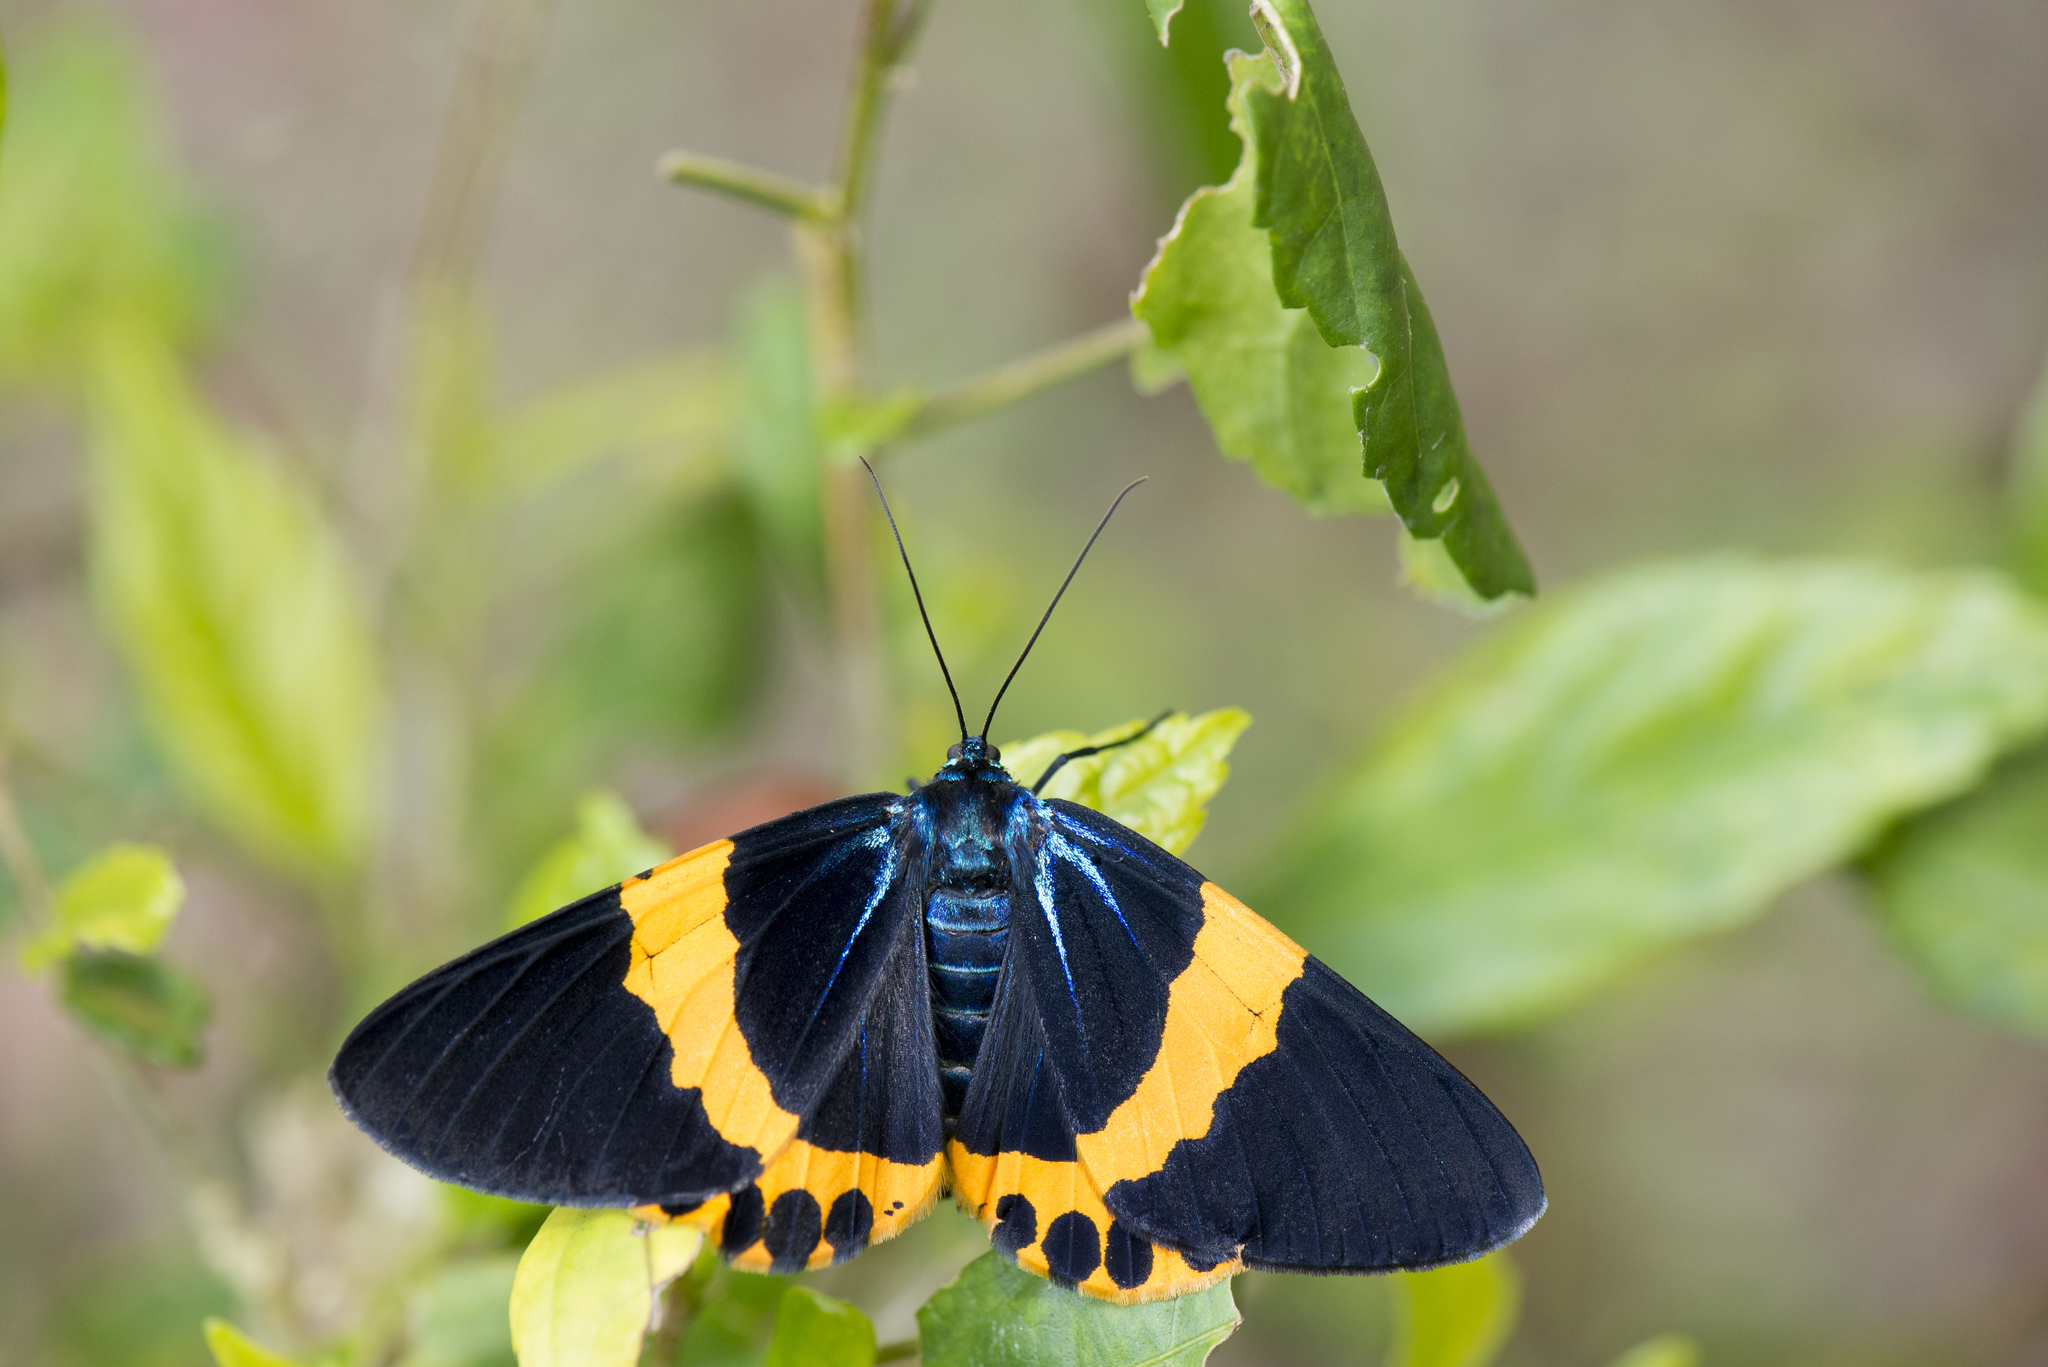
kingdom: Animalia
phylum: Arthropoda
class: Insecta
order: Lepidoptera
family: Geometridae
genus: Milionia
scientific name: Milionia basalis
